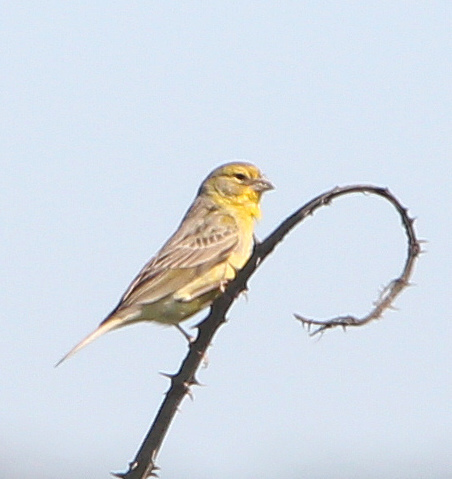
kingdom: Animalia
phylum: Chordata
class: Aves
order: Passeriformes
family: Thraupidae
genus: Sicalis
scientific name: Sicalis luteola
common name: Grassland yellow-finch
